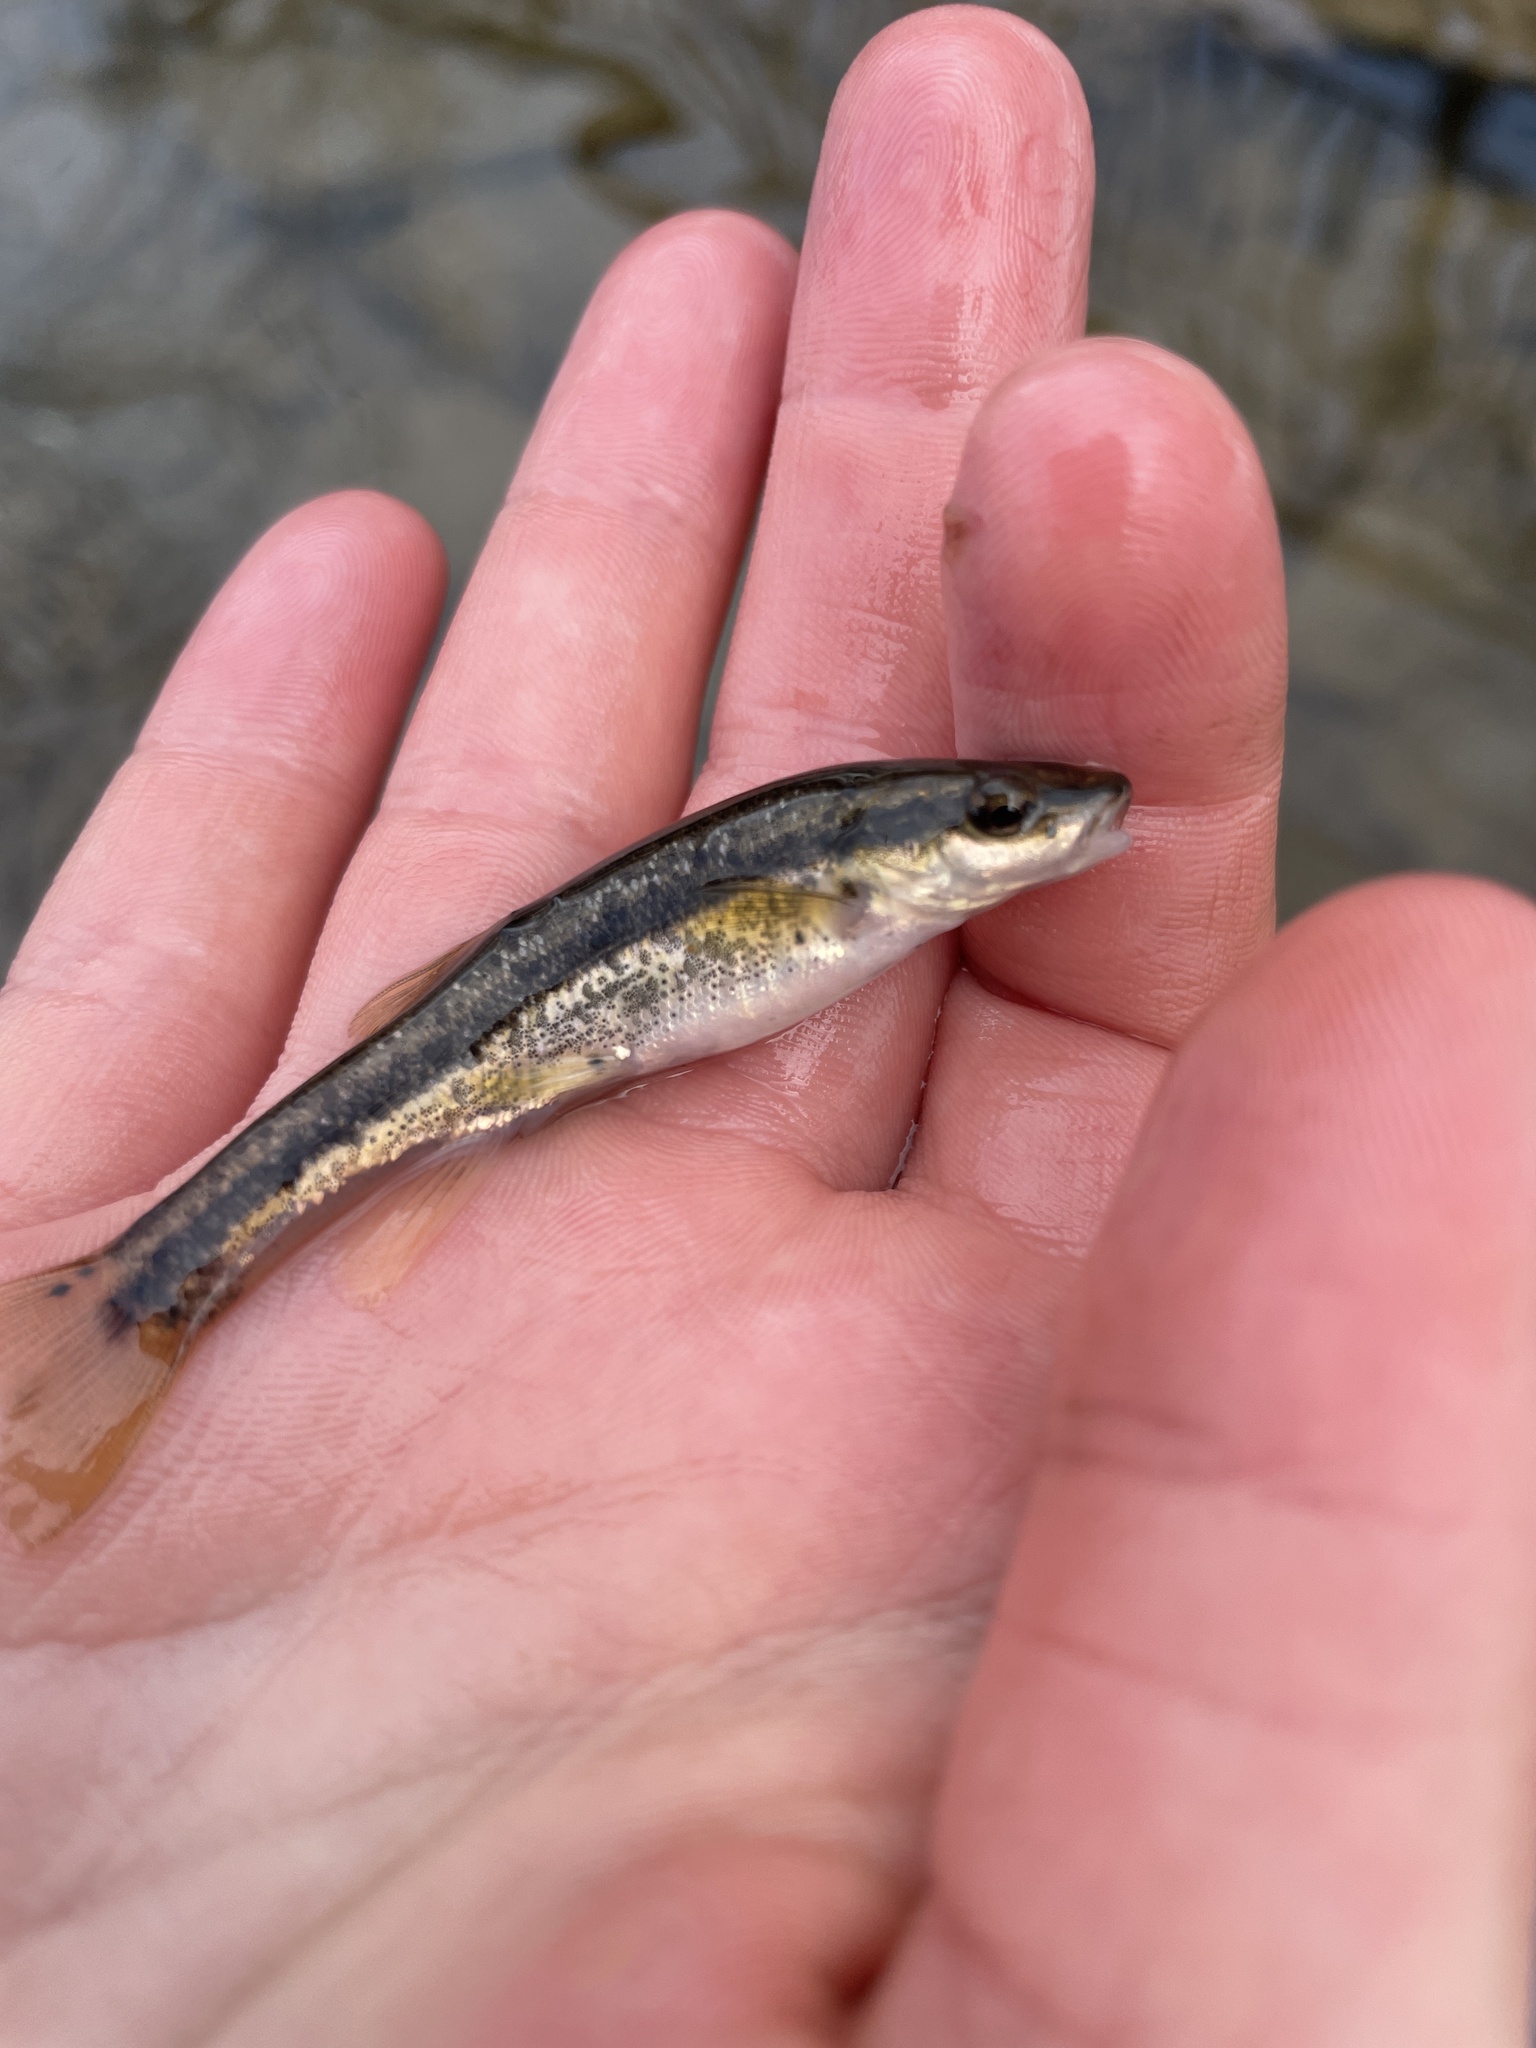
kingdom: Animalia
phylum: Chordata
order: Cypriniformes
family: Cyprinidae
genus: Rhinichthys
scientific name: Rhinichthys obtusus
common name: Western blacknose dace
